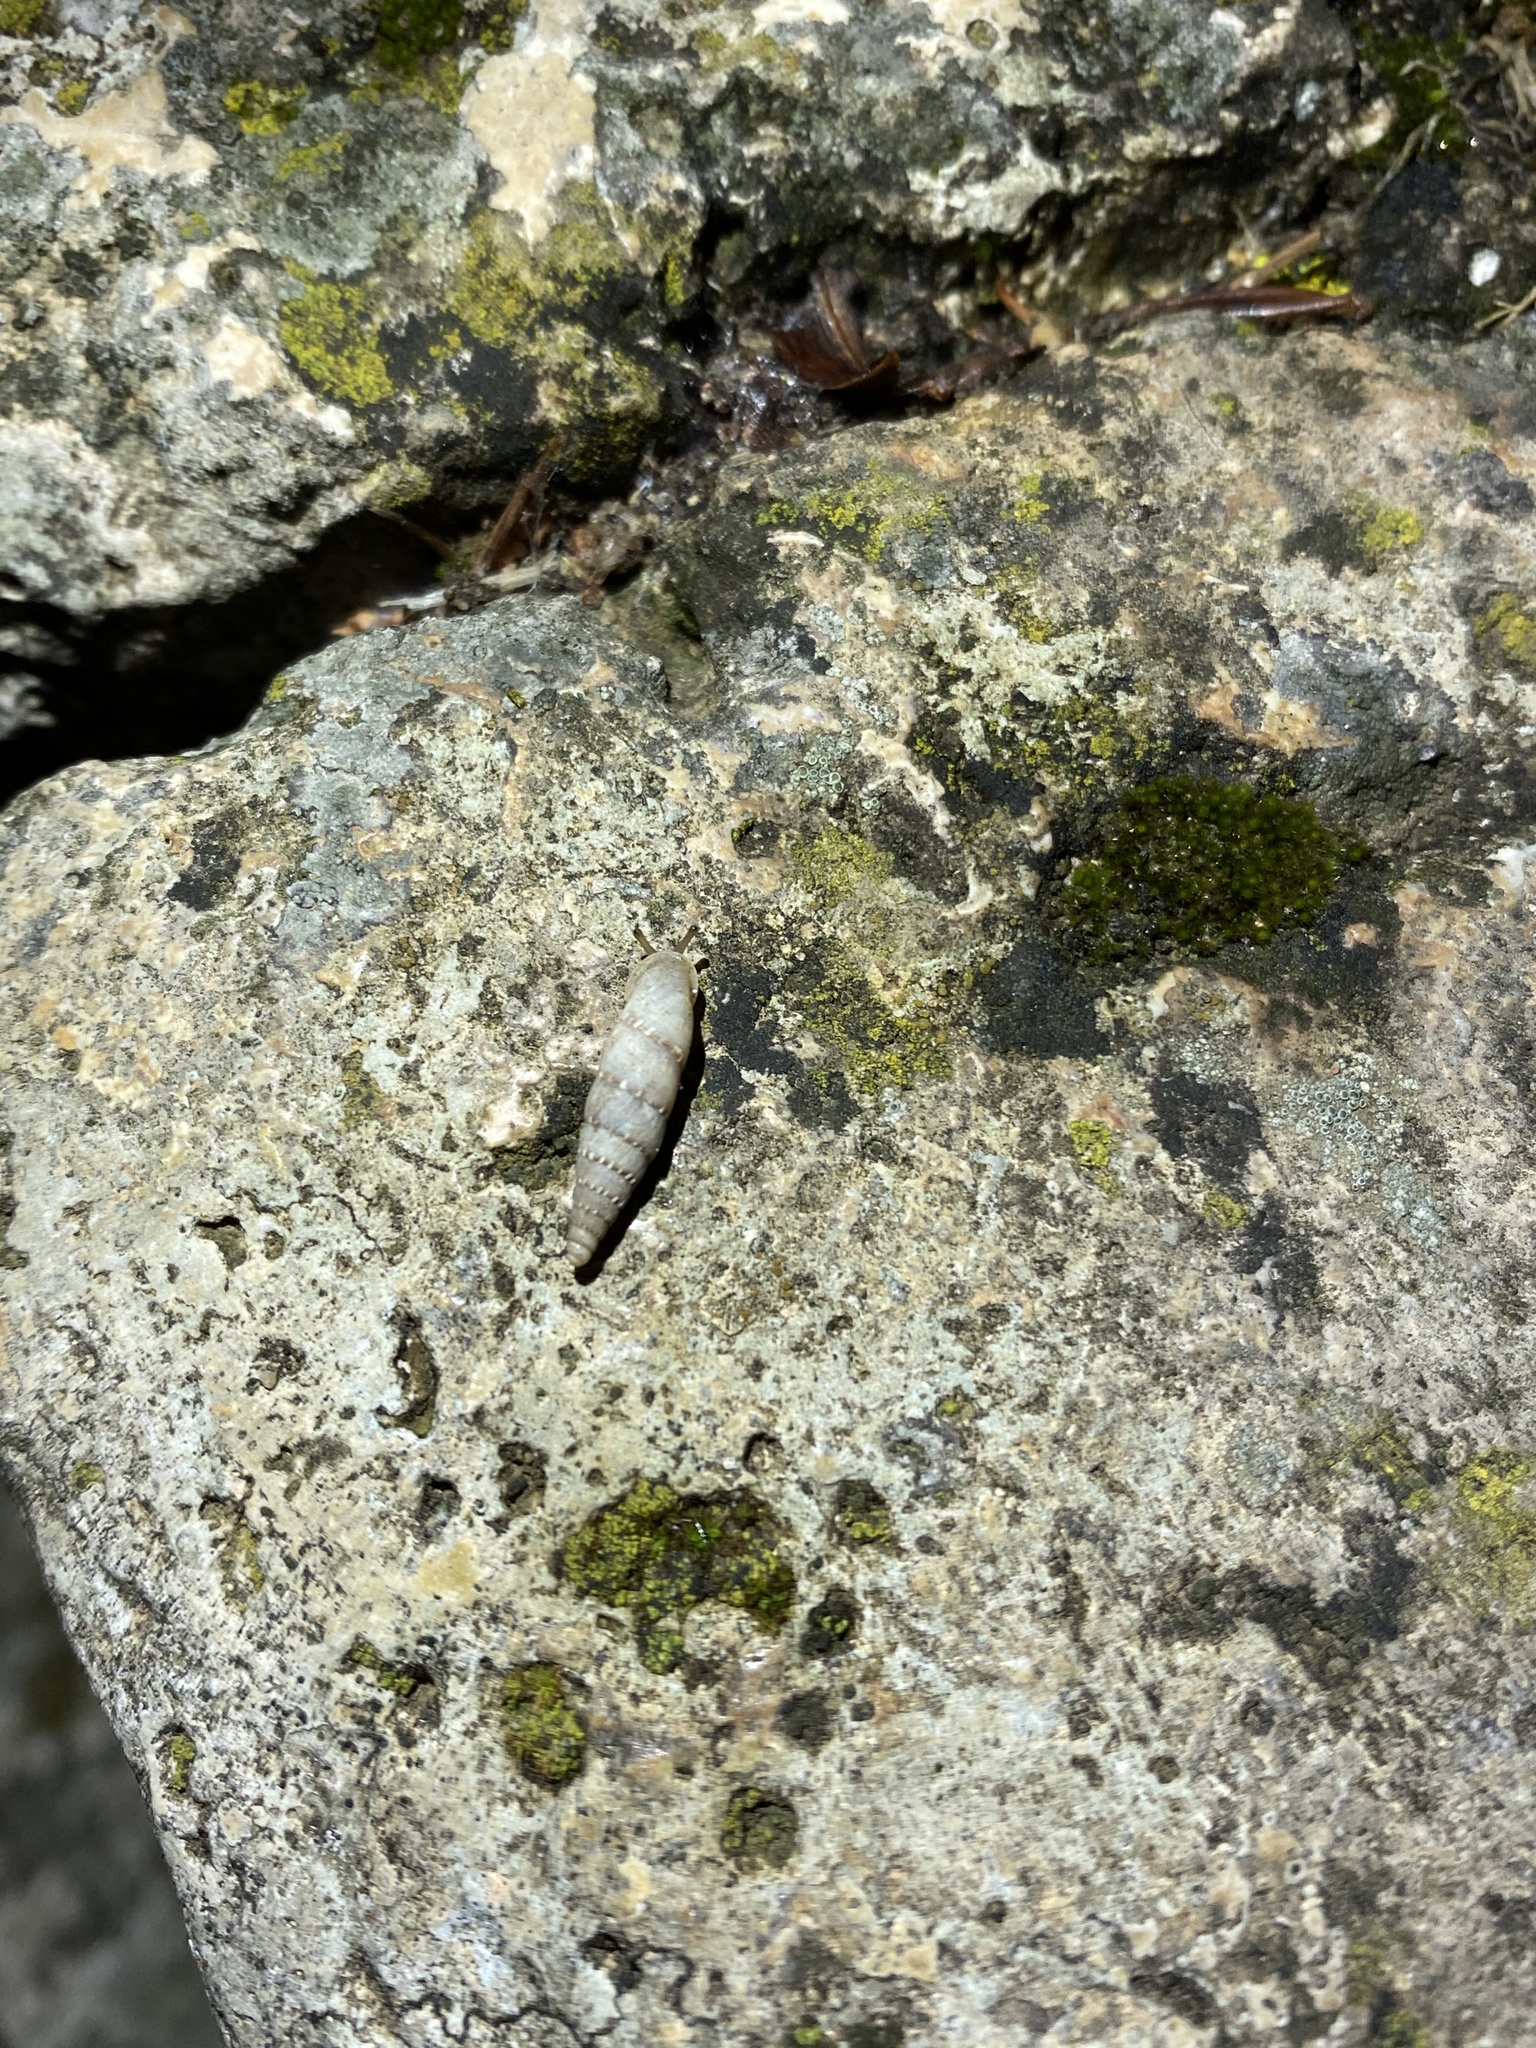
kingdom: Animalia
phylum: Mollusca
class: Gastropoda
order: Stylommatophora
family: Clausiliidae
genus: Papillifera
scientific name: Papillifera papillaris
